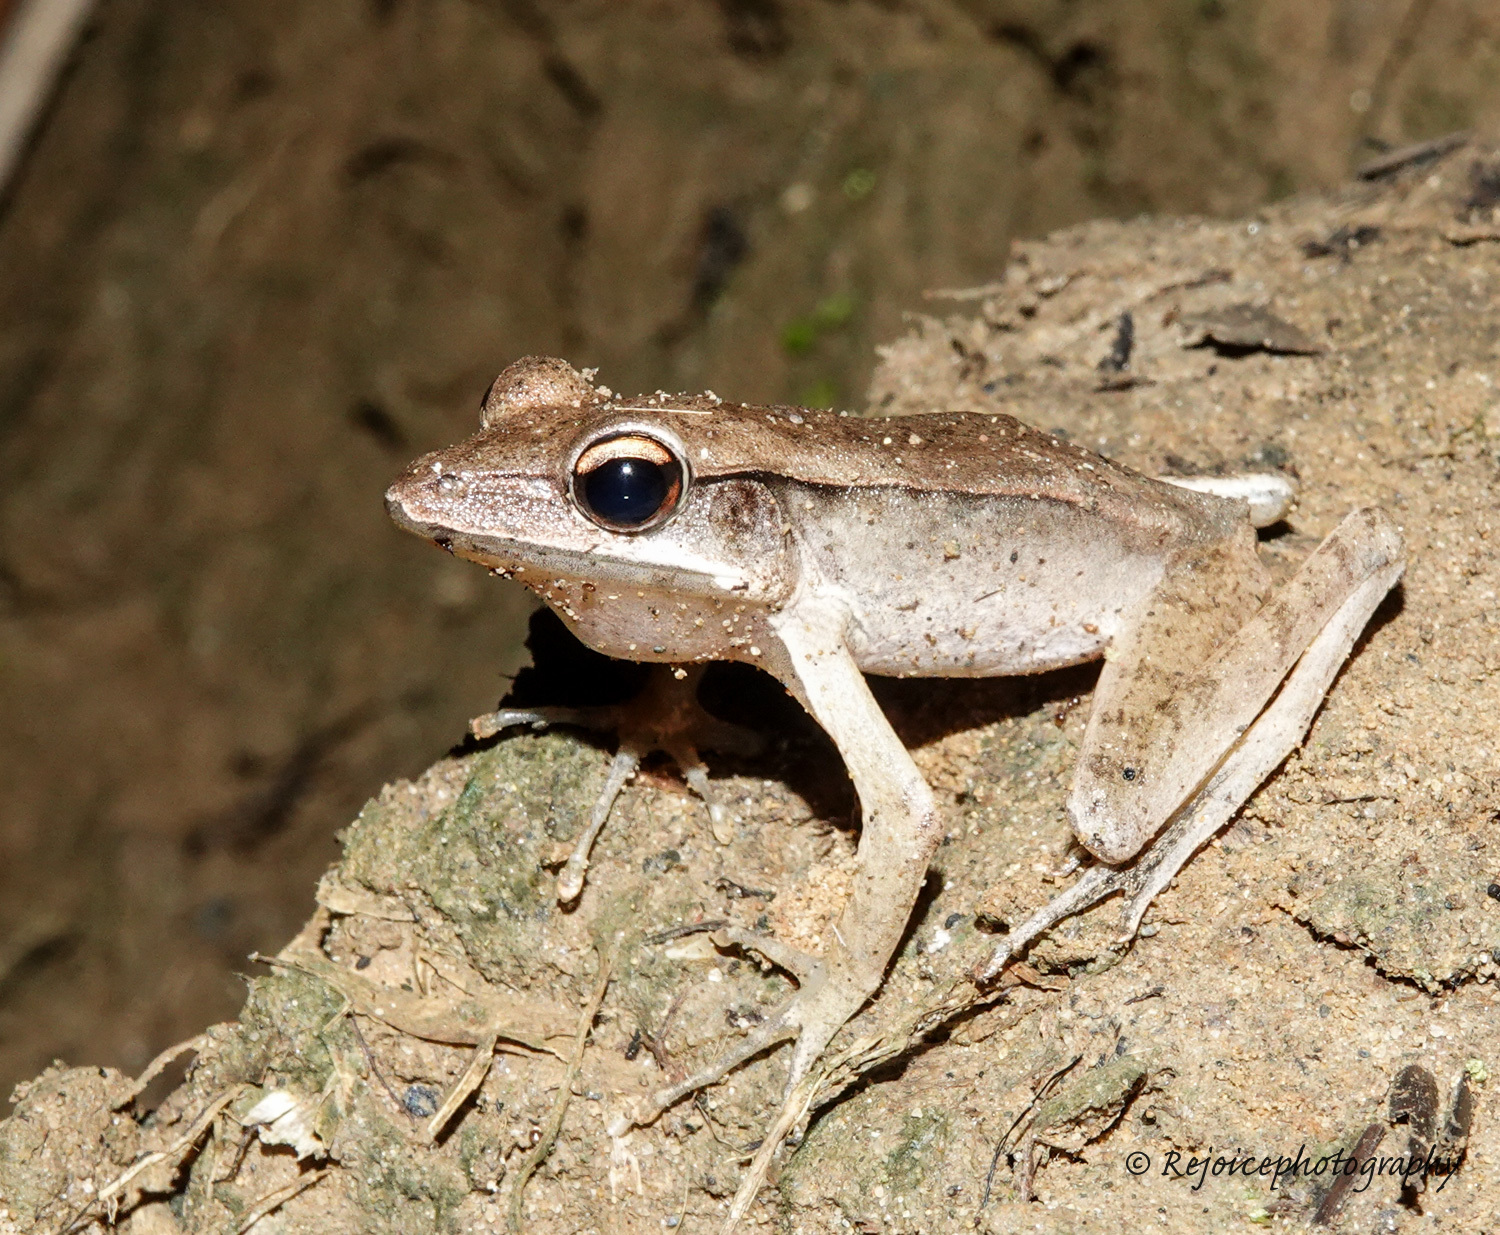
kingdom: Animalia
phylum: Chordata
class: Amphibia
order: Anura
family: Ranidae
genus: Clinotarsus
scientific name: Clinotarsus alticola
